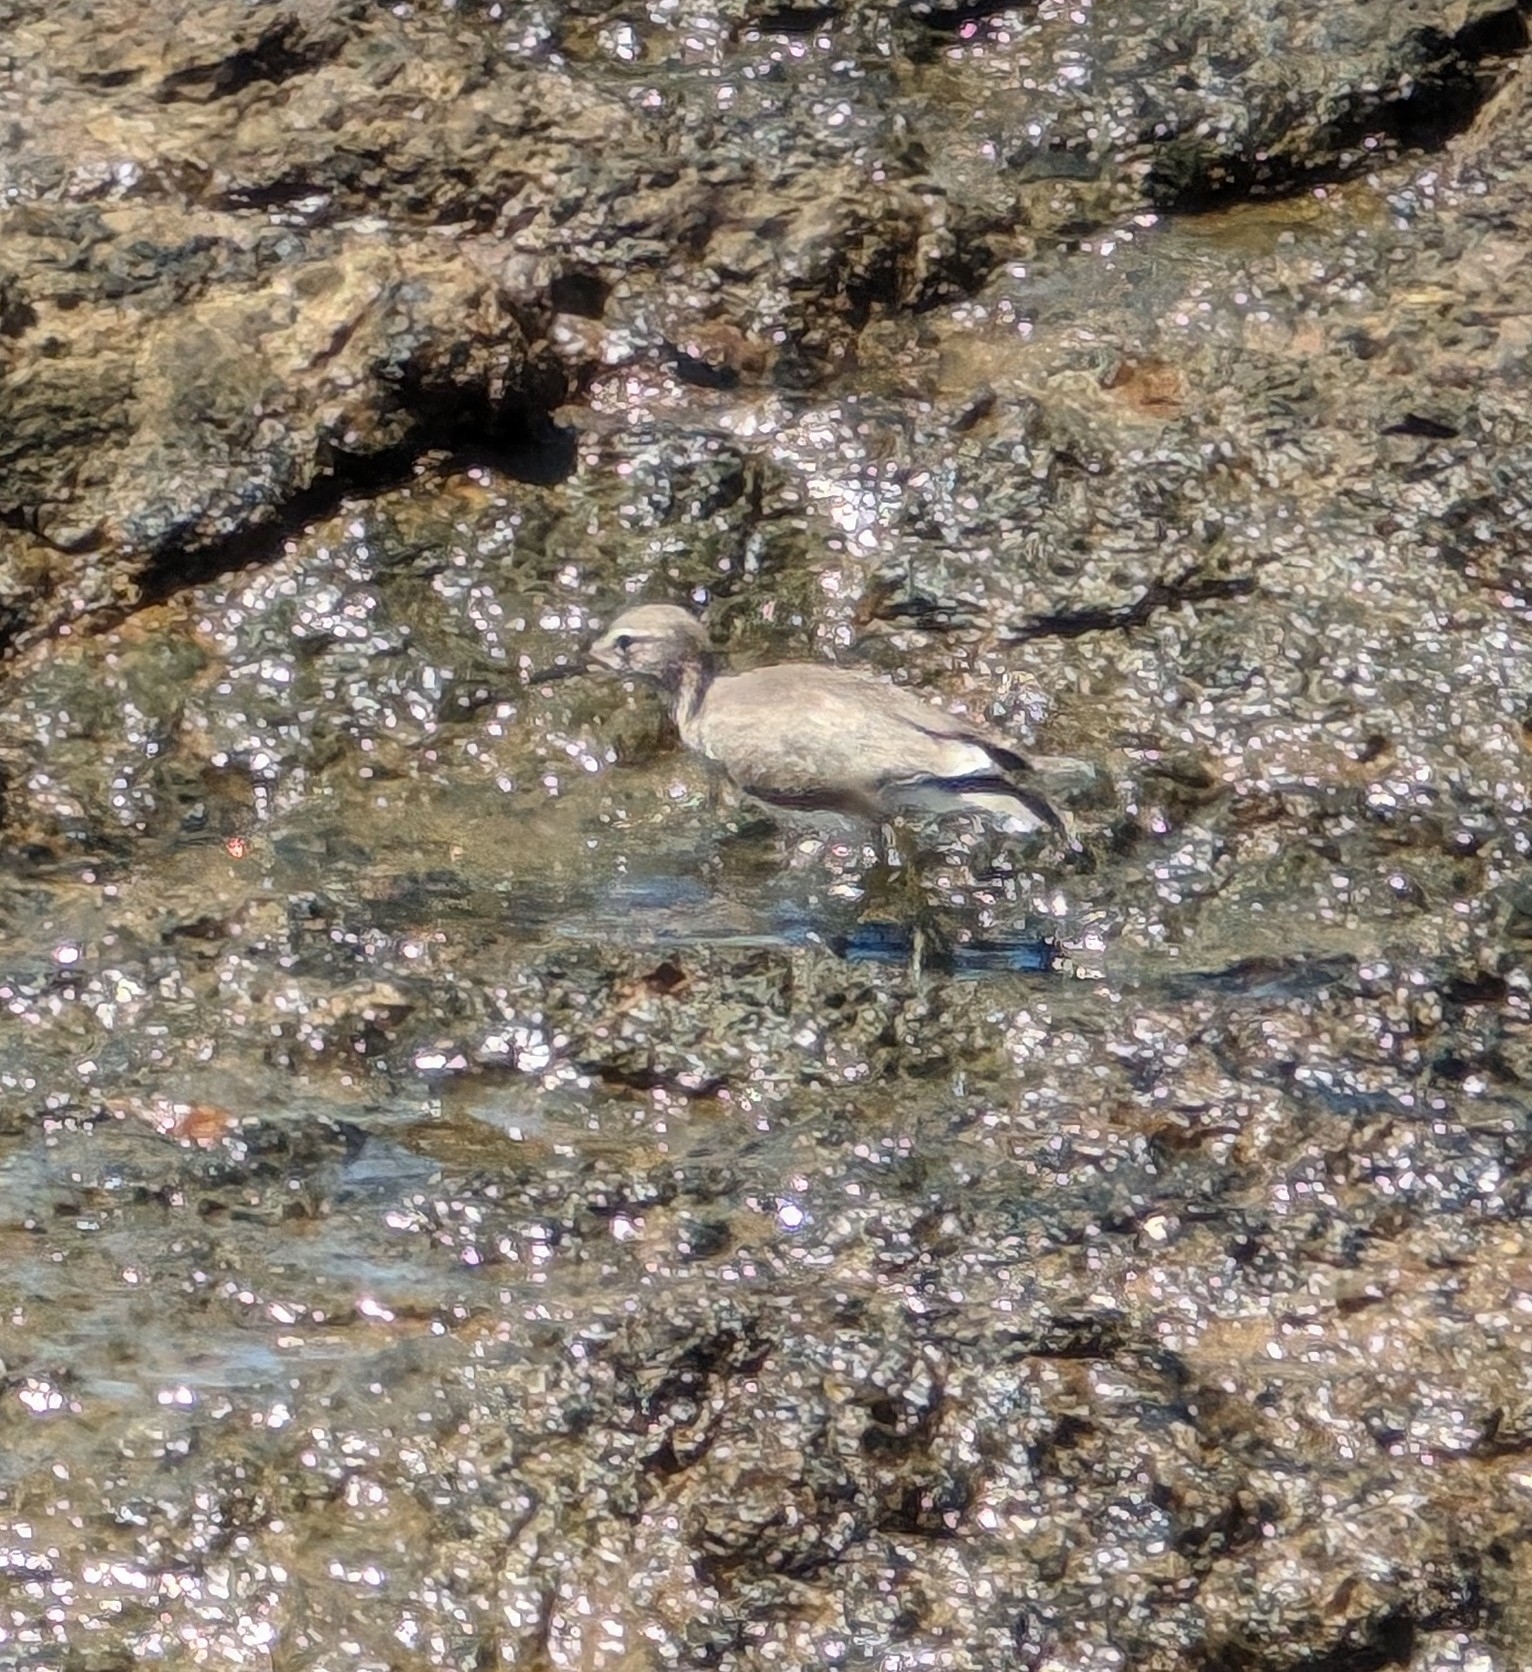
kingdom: Animalia
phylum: Chordata
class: Aves
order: Charadriiformes
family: Scolopacidae
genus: Tringa
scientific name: Tringa solitaria
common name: Solitary sandpiper
